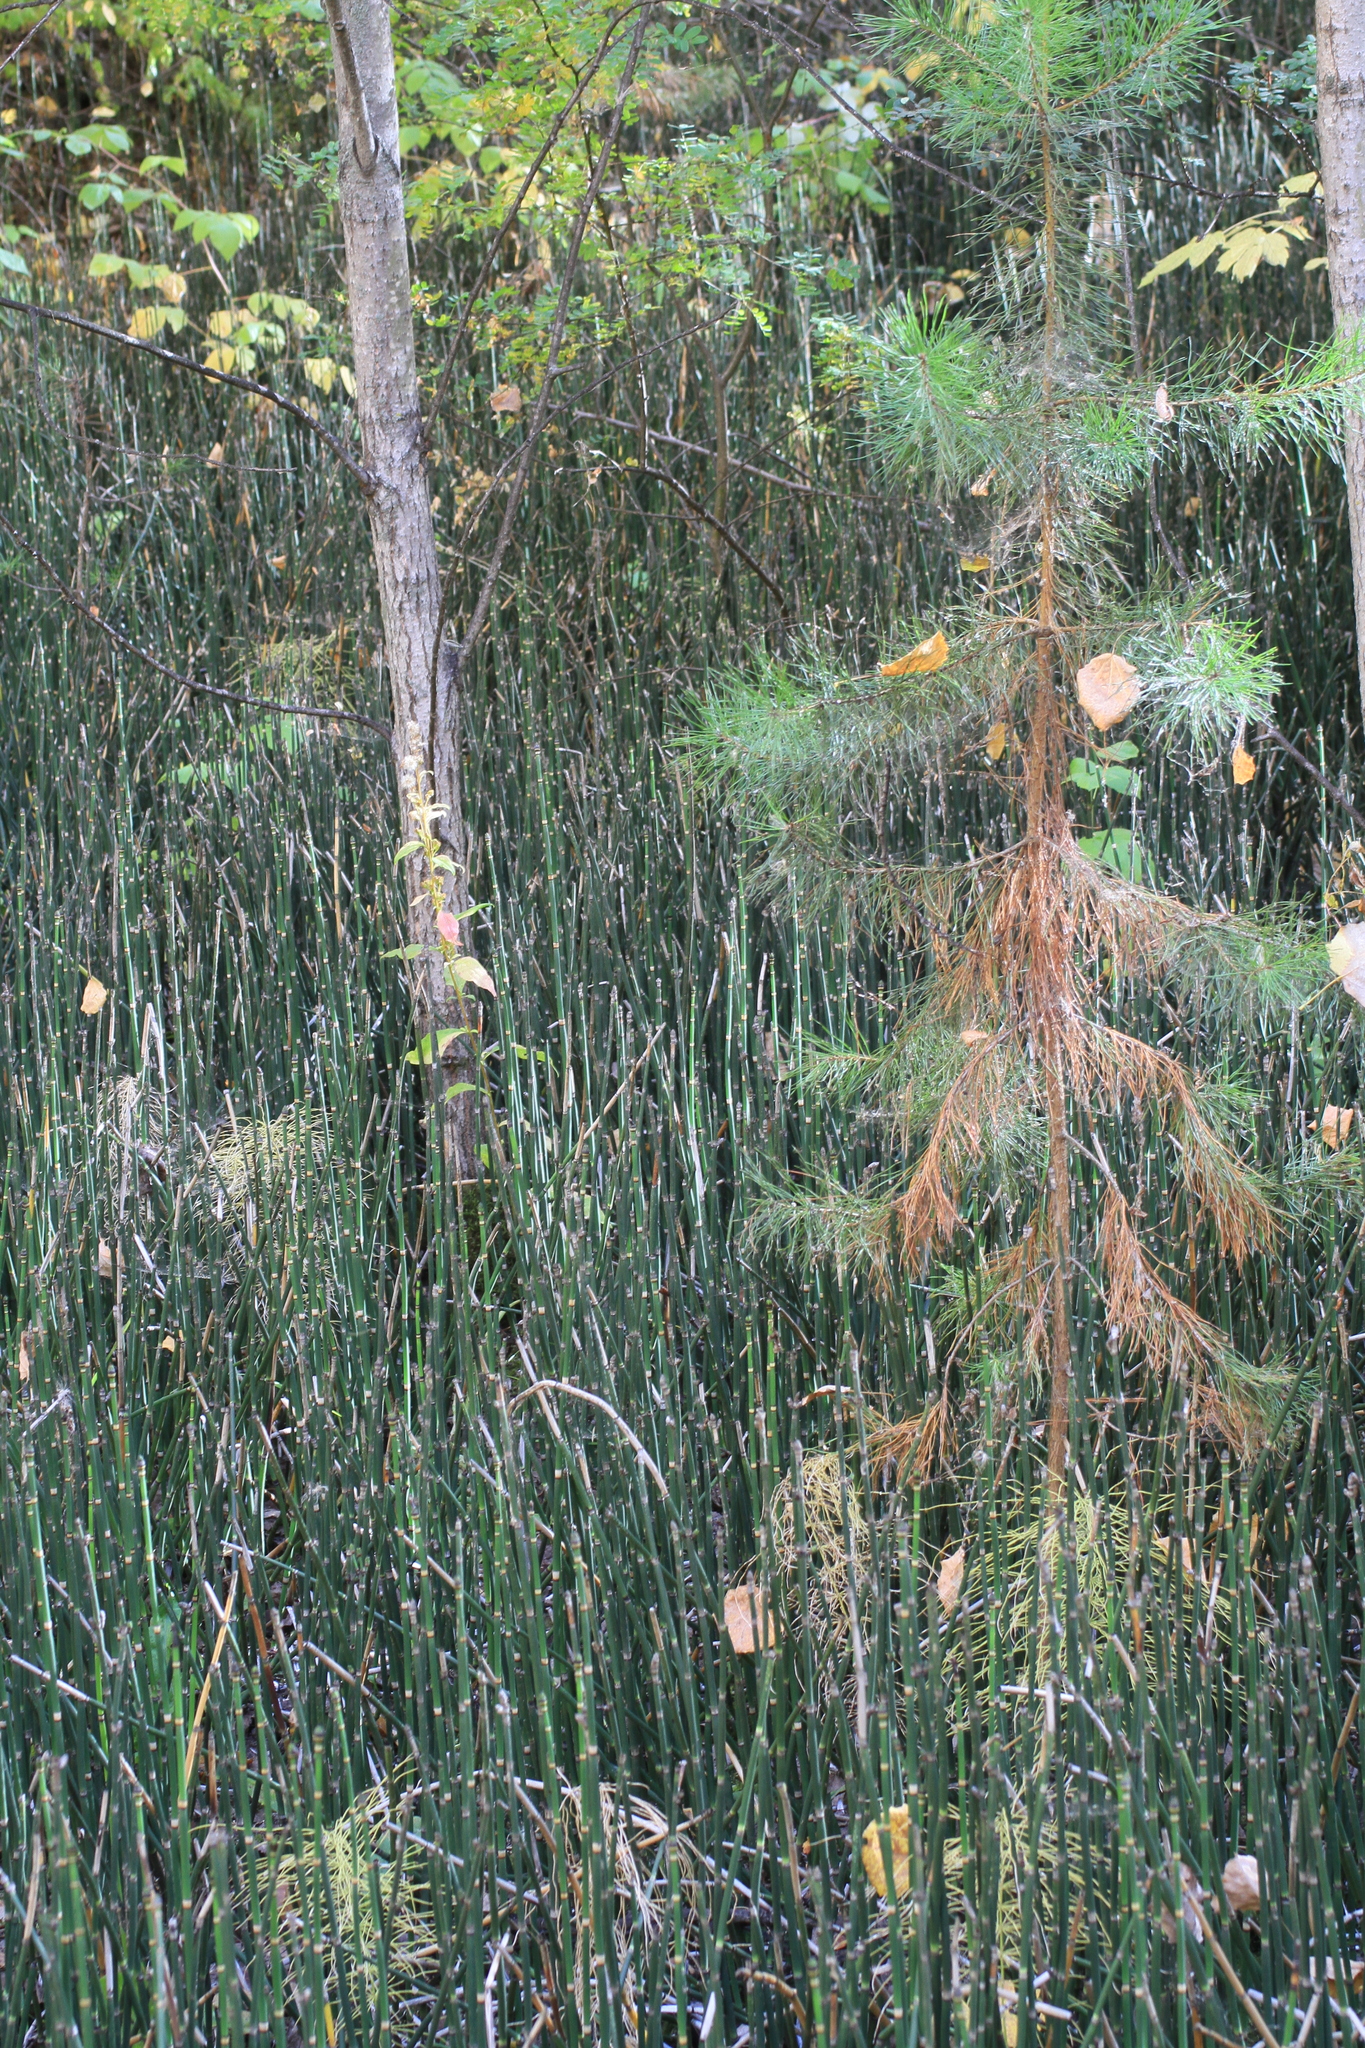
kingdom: Plantae
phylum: Tracheophyta
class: Pinopsida
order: Pinales
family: Pinaceae
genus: Pinus
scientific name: Pinus sylvestris
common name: Scots pine
